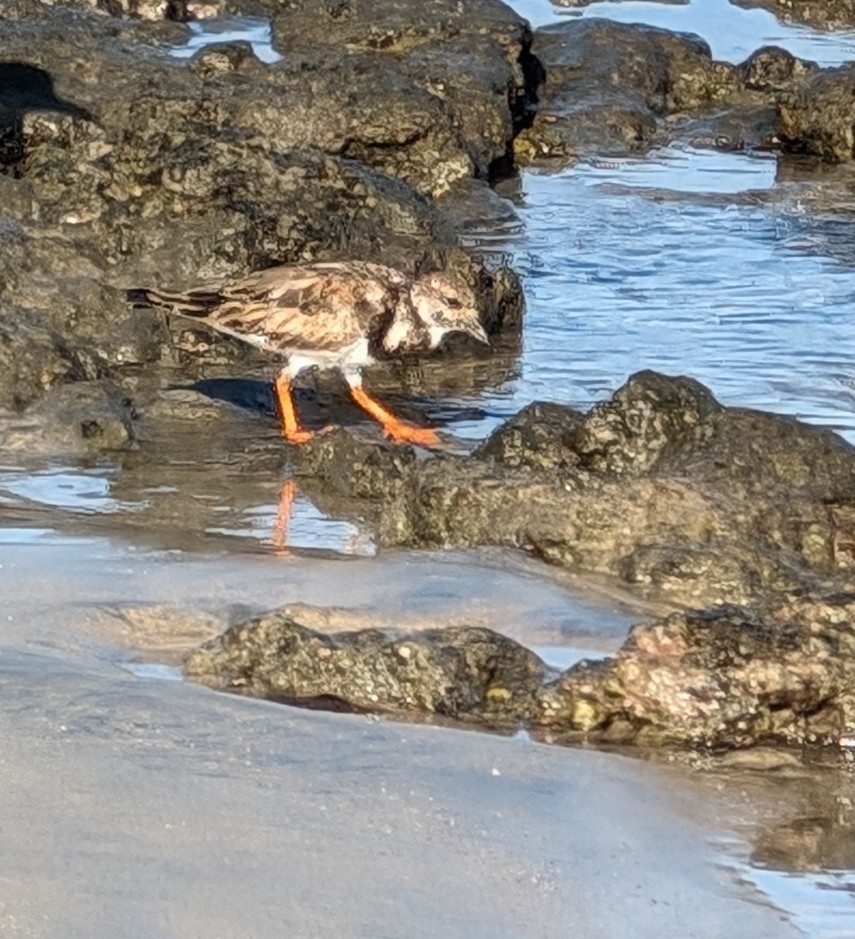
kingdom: Animalia
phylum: Chordata
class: Aves
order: Charadriiformes
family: Scolopacidae
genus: Arenaria
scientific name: Arenaria interpres
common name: Ruddy turnstone
